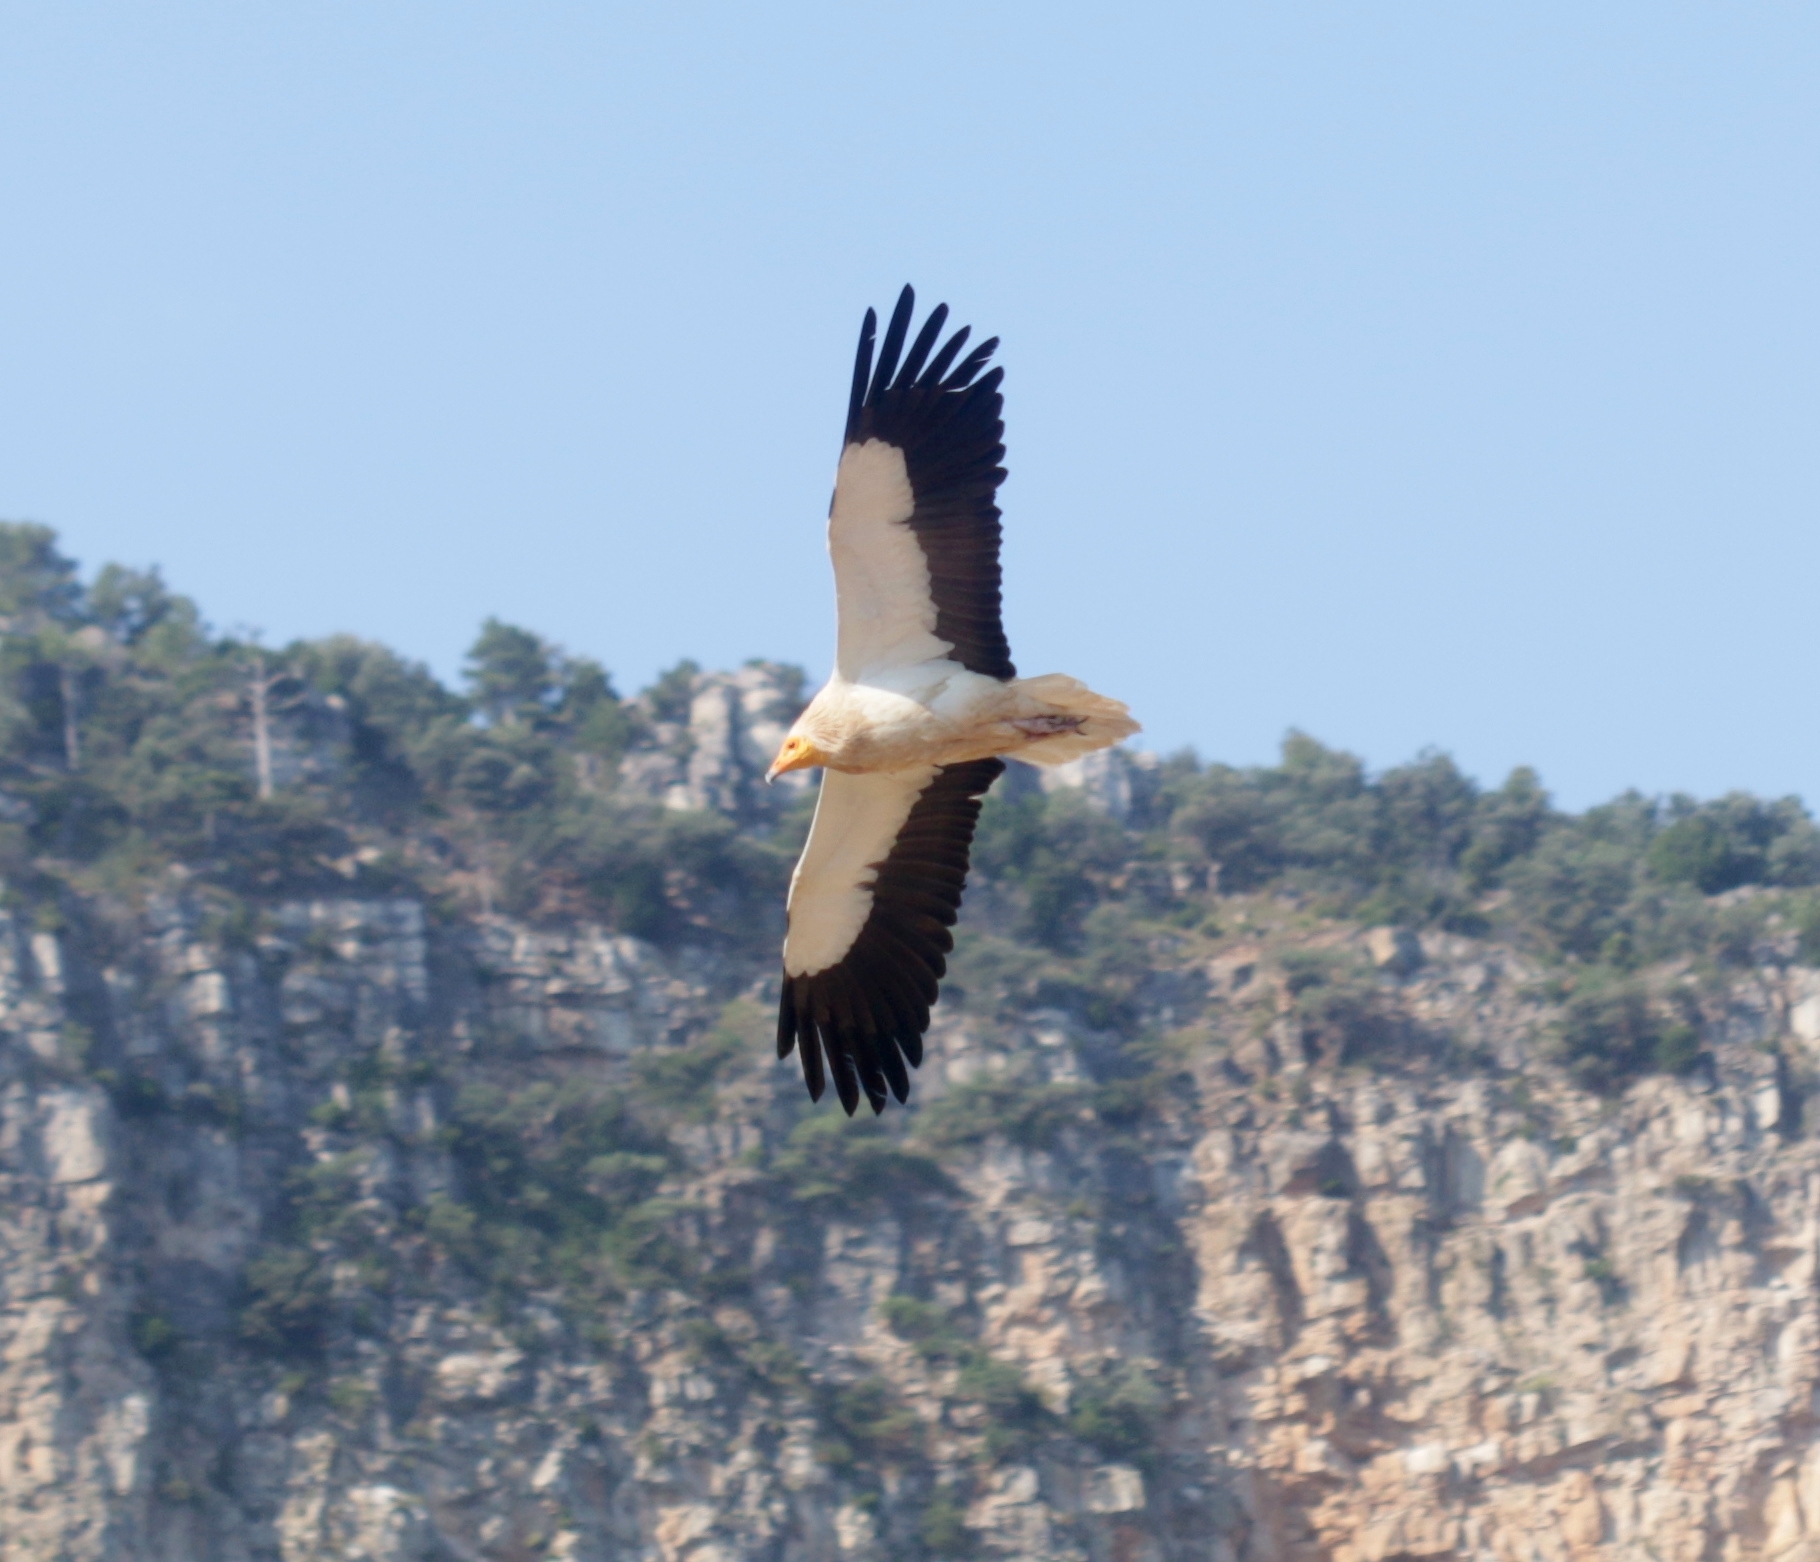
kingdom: Animalia
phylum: Chordata
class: Aves
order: Accipitriformes
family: Accipitridae
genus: Neophron
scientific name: Neophron percnopterus
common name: Egyptian vulture
